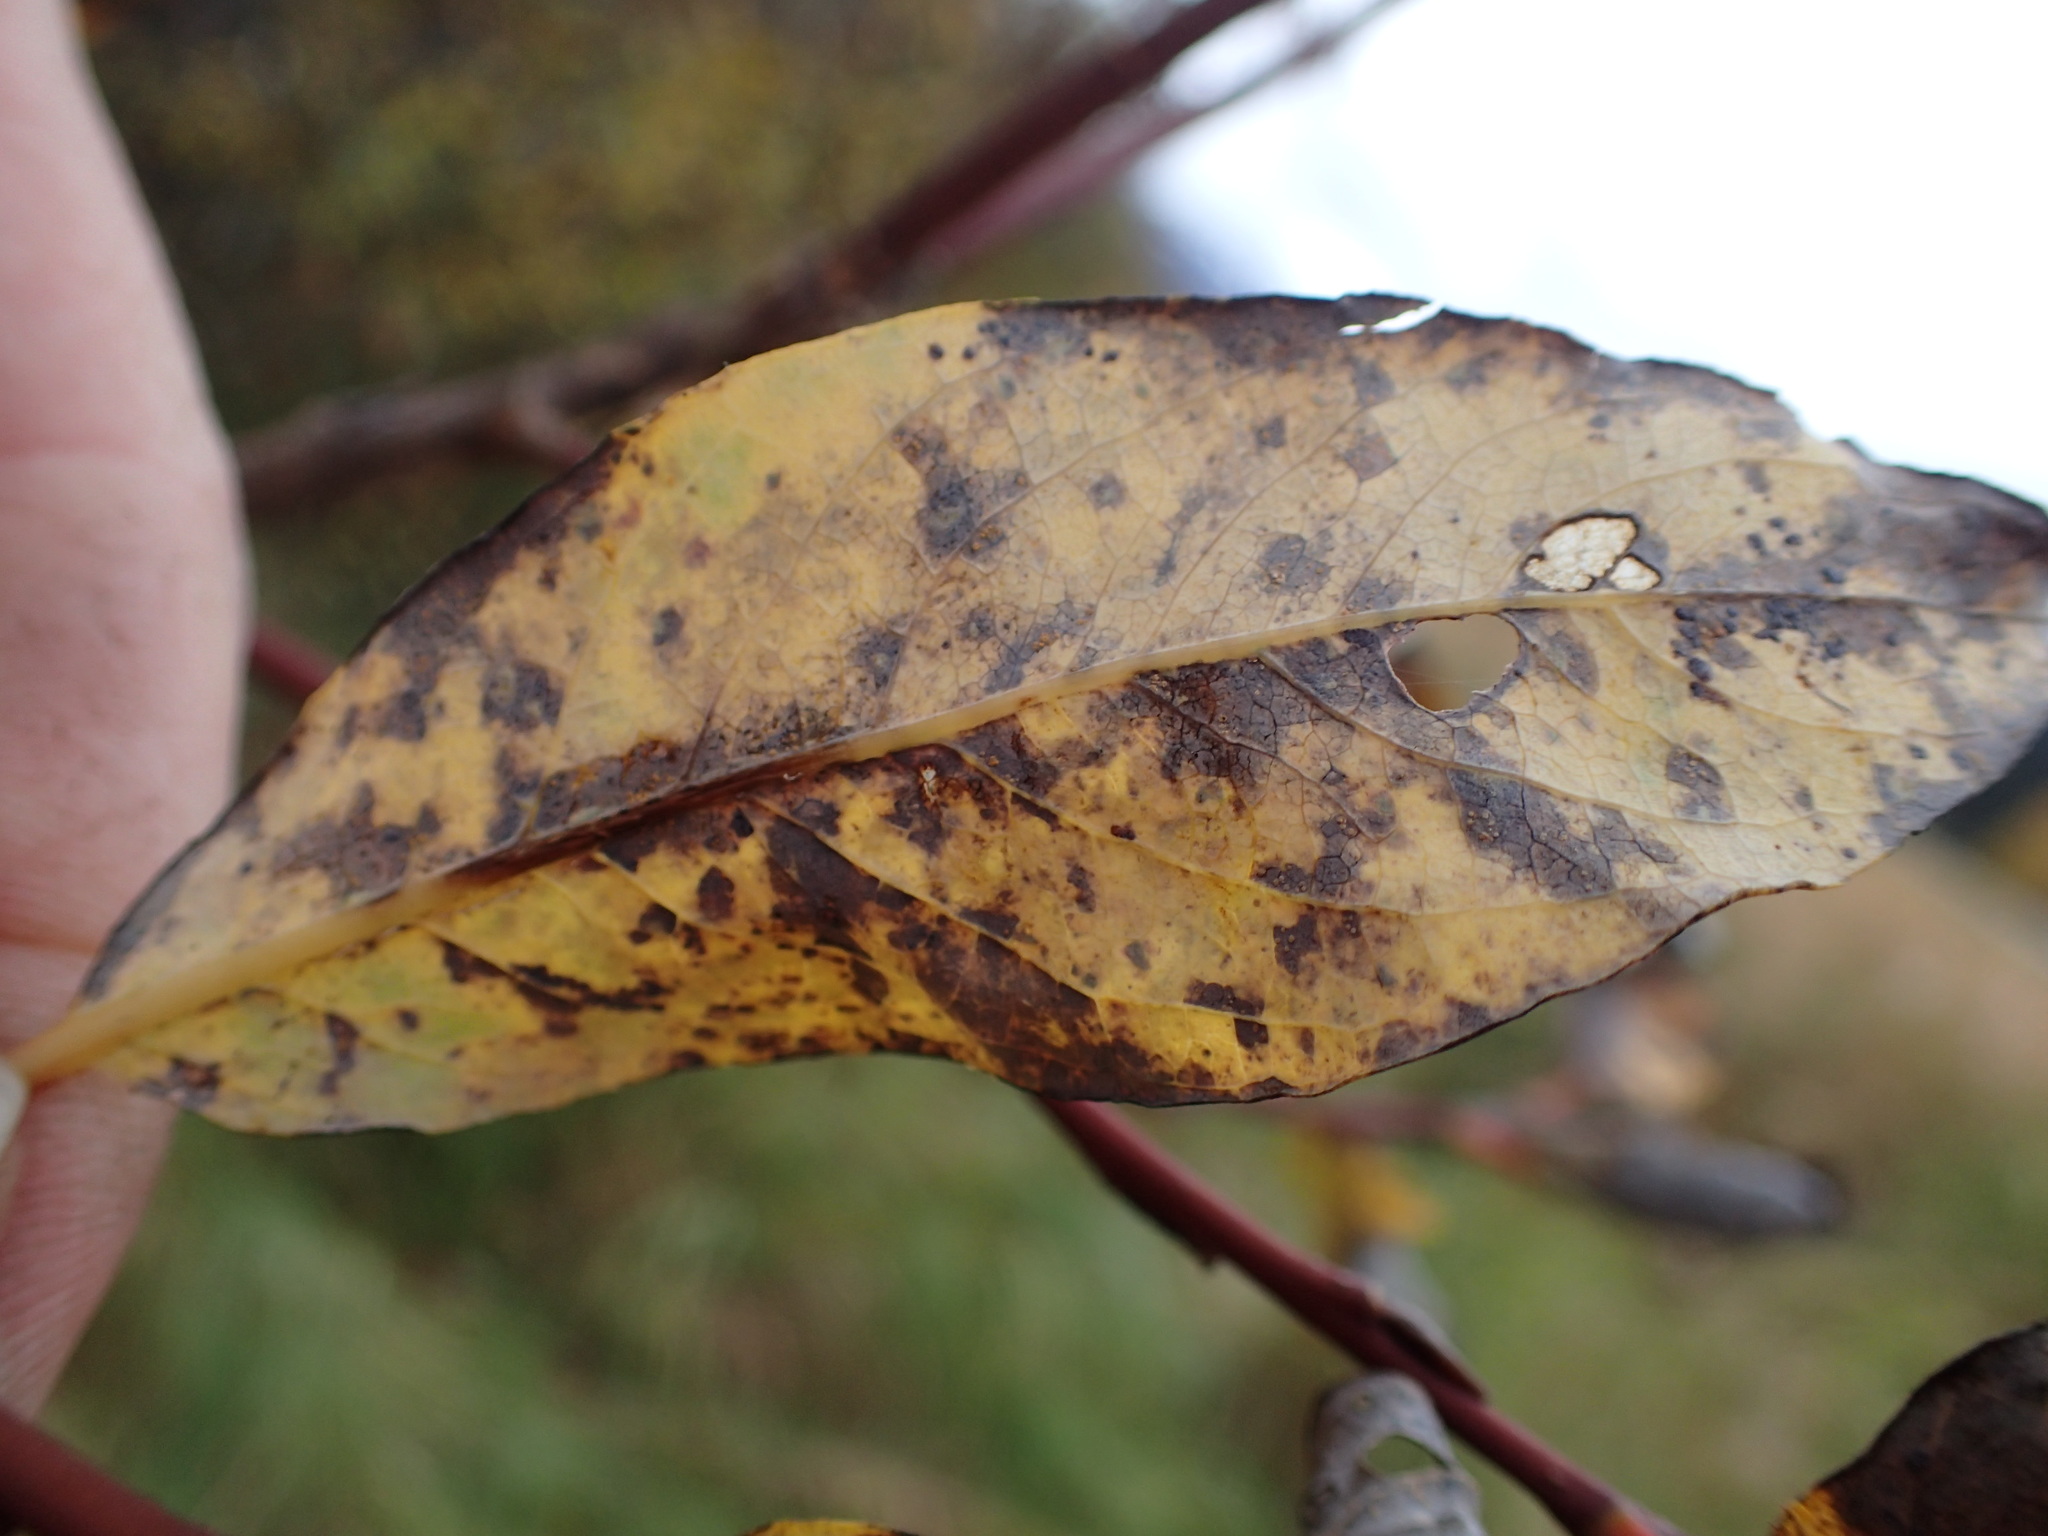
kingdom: Plantae
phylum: Tracheophyta
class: Magnoliopsida
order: Malpighiales
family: Salicaceae
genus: Salix
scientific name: Salix hookeriana
